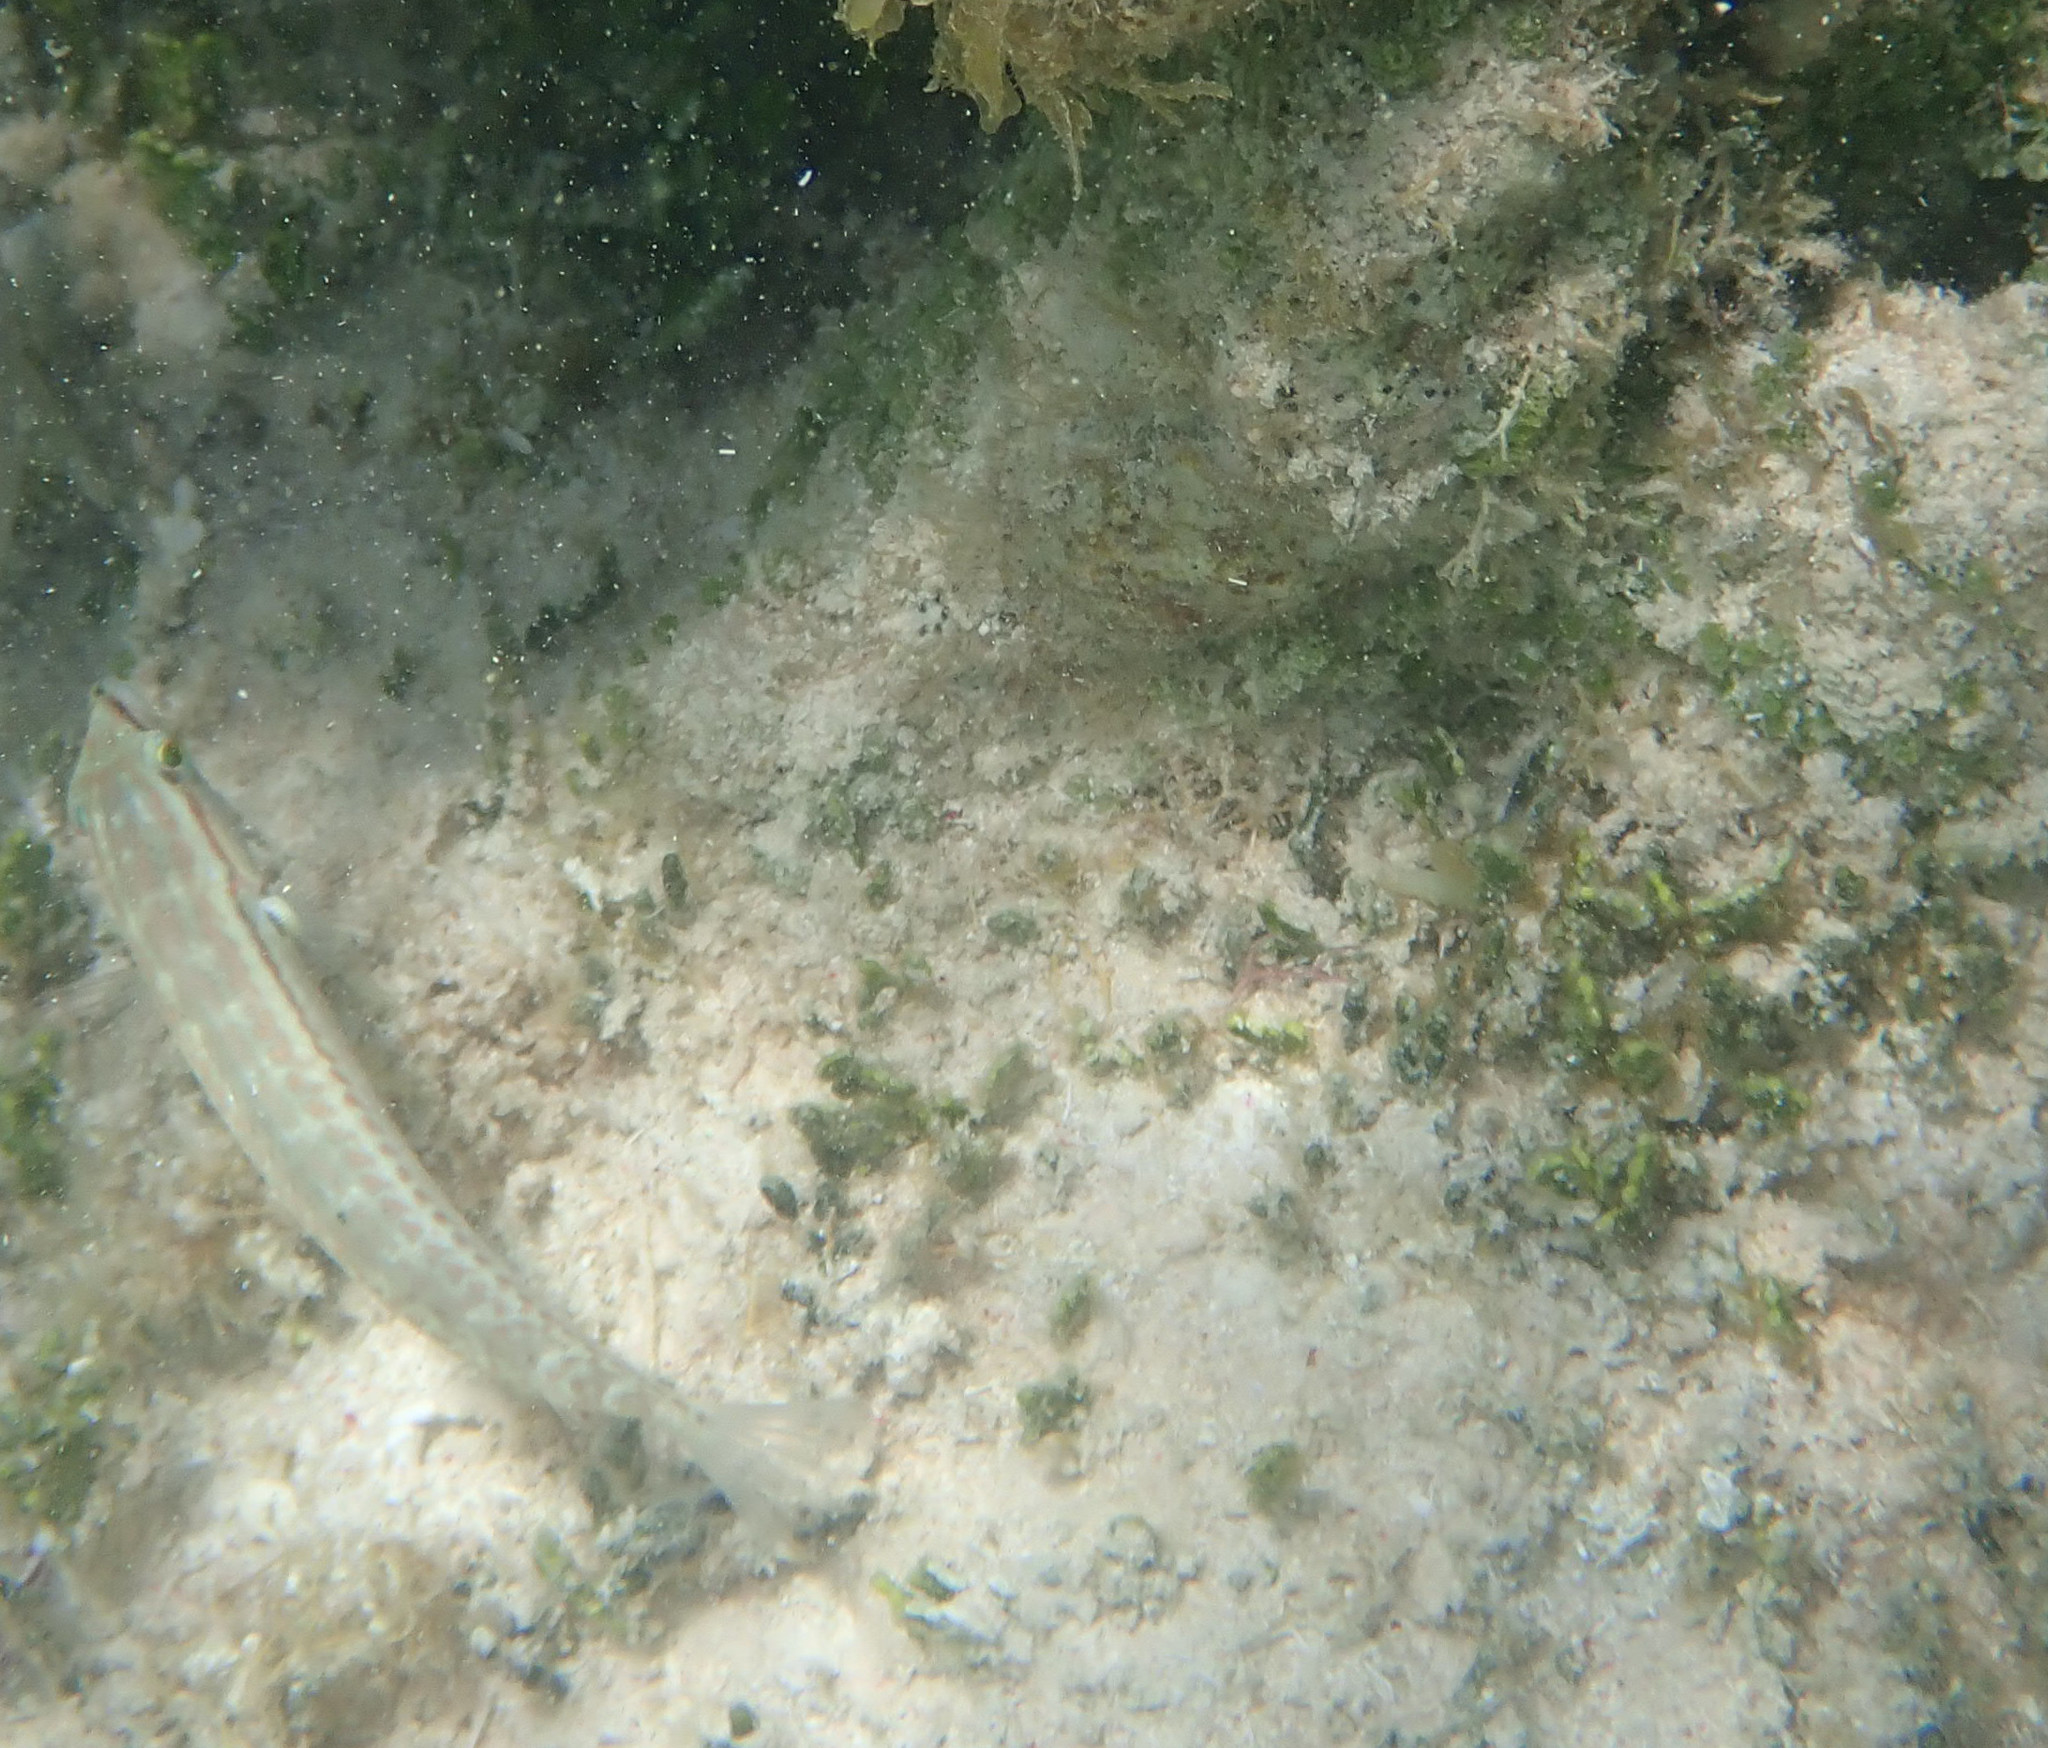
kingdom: Animalia
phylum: Chordata
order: Perciformes
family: Labridae
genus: Halichoeres
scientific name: Halichoeres bivittatus
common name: Slippery dick
